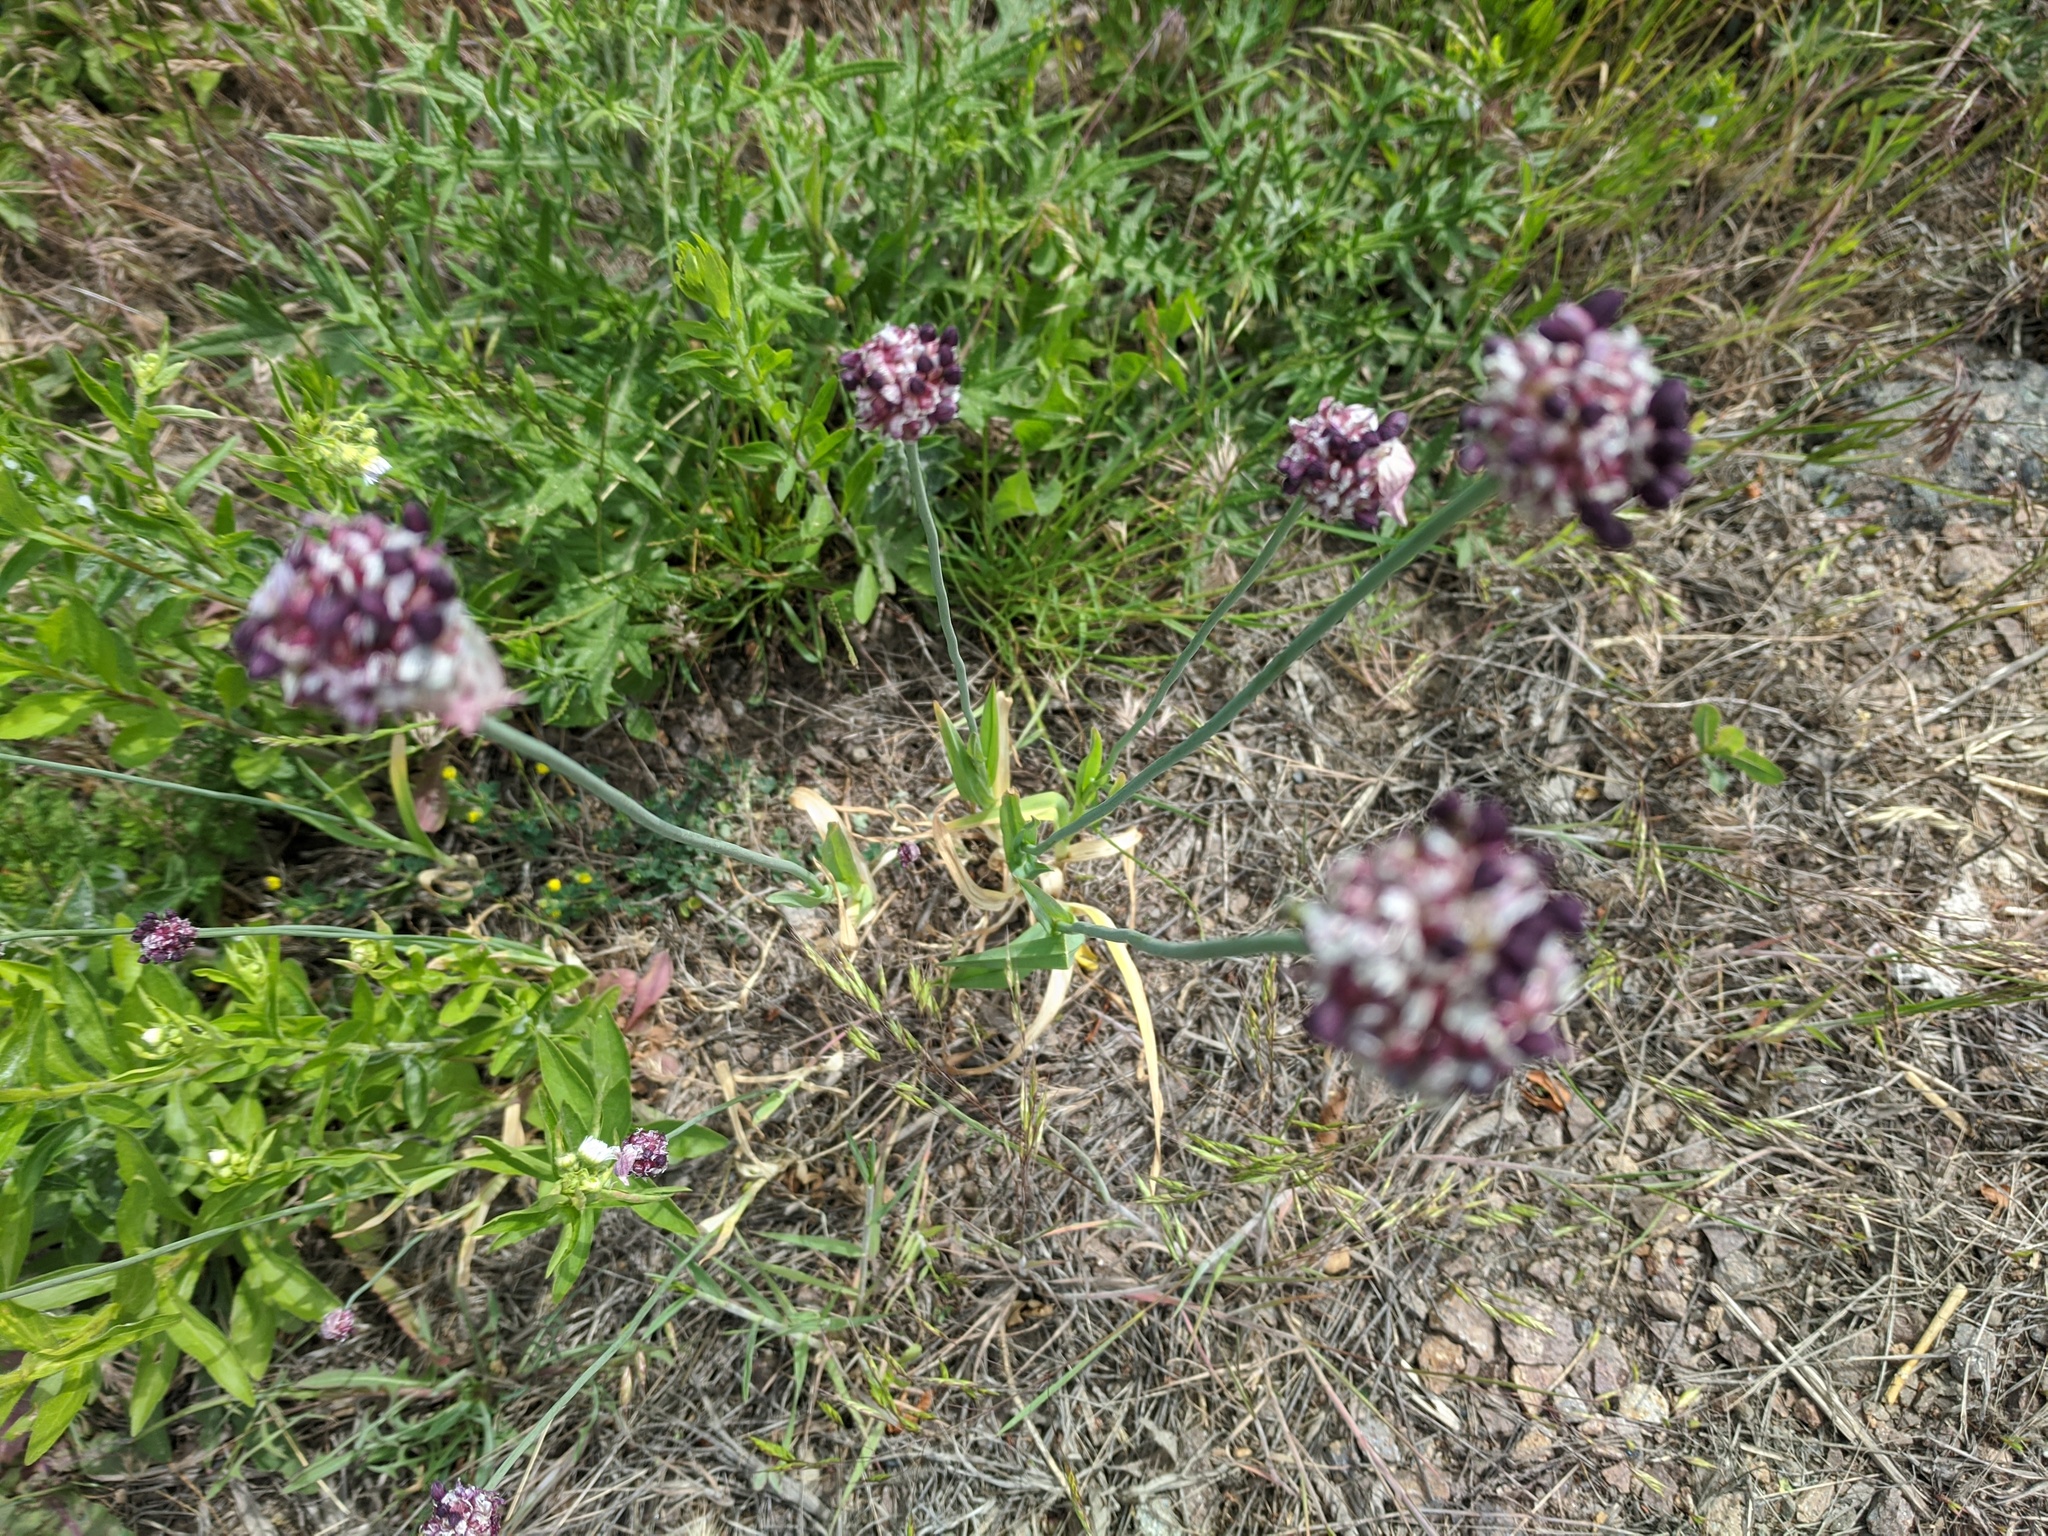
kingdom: Plantae
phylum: Tracheophyta
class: Liliopsida
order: Asparagales
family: Amaryllidaceae
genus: Allium
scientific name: Allium scorodoprasum
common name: Sand leek
